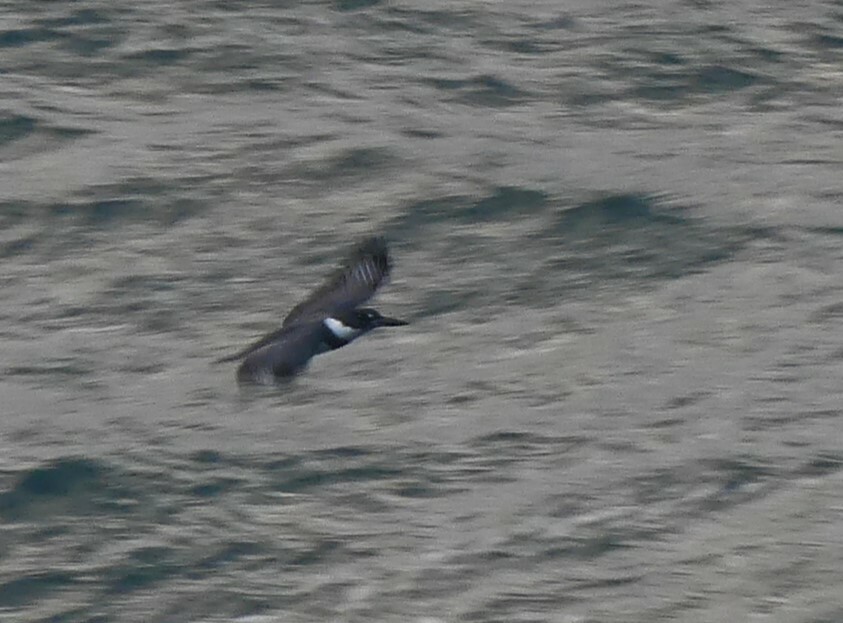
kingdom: Animalia
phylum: Chordata
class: Aves
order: Coraciiformes
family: Alcedinidae
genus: Megaceryle
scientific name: Megaceryle alcyon
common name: Belted kingfisher
